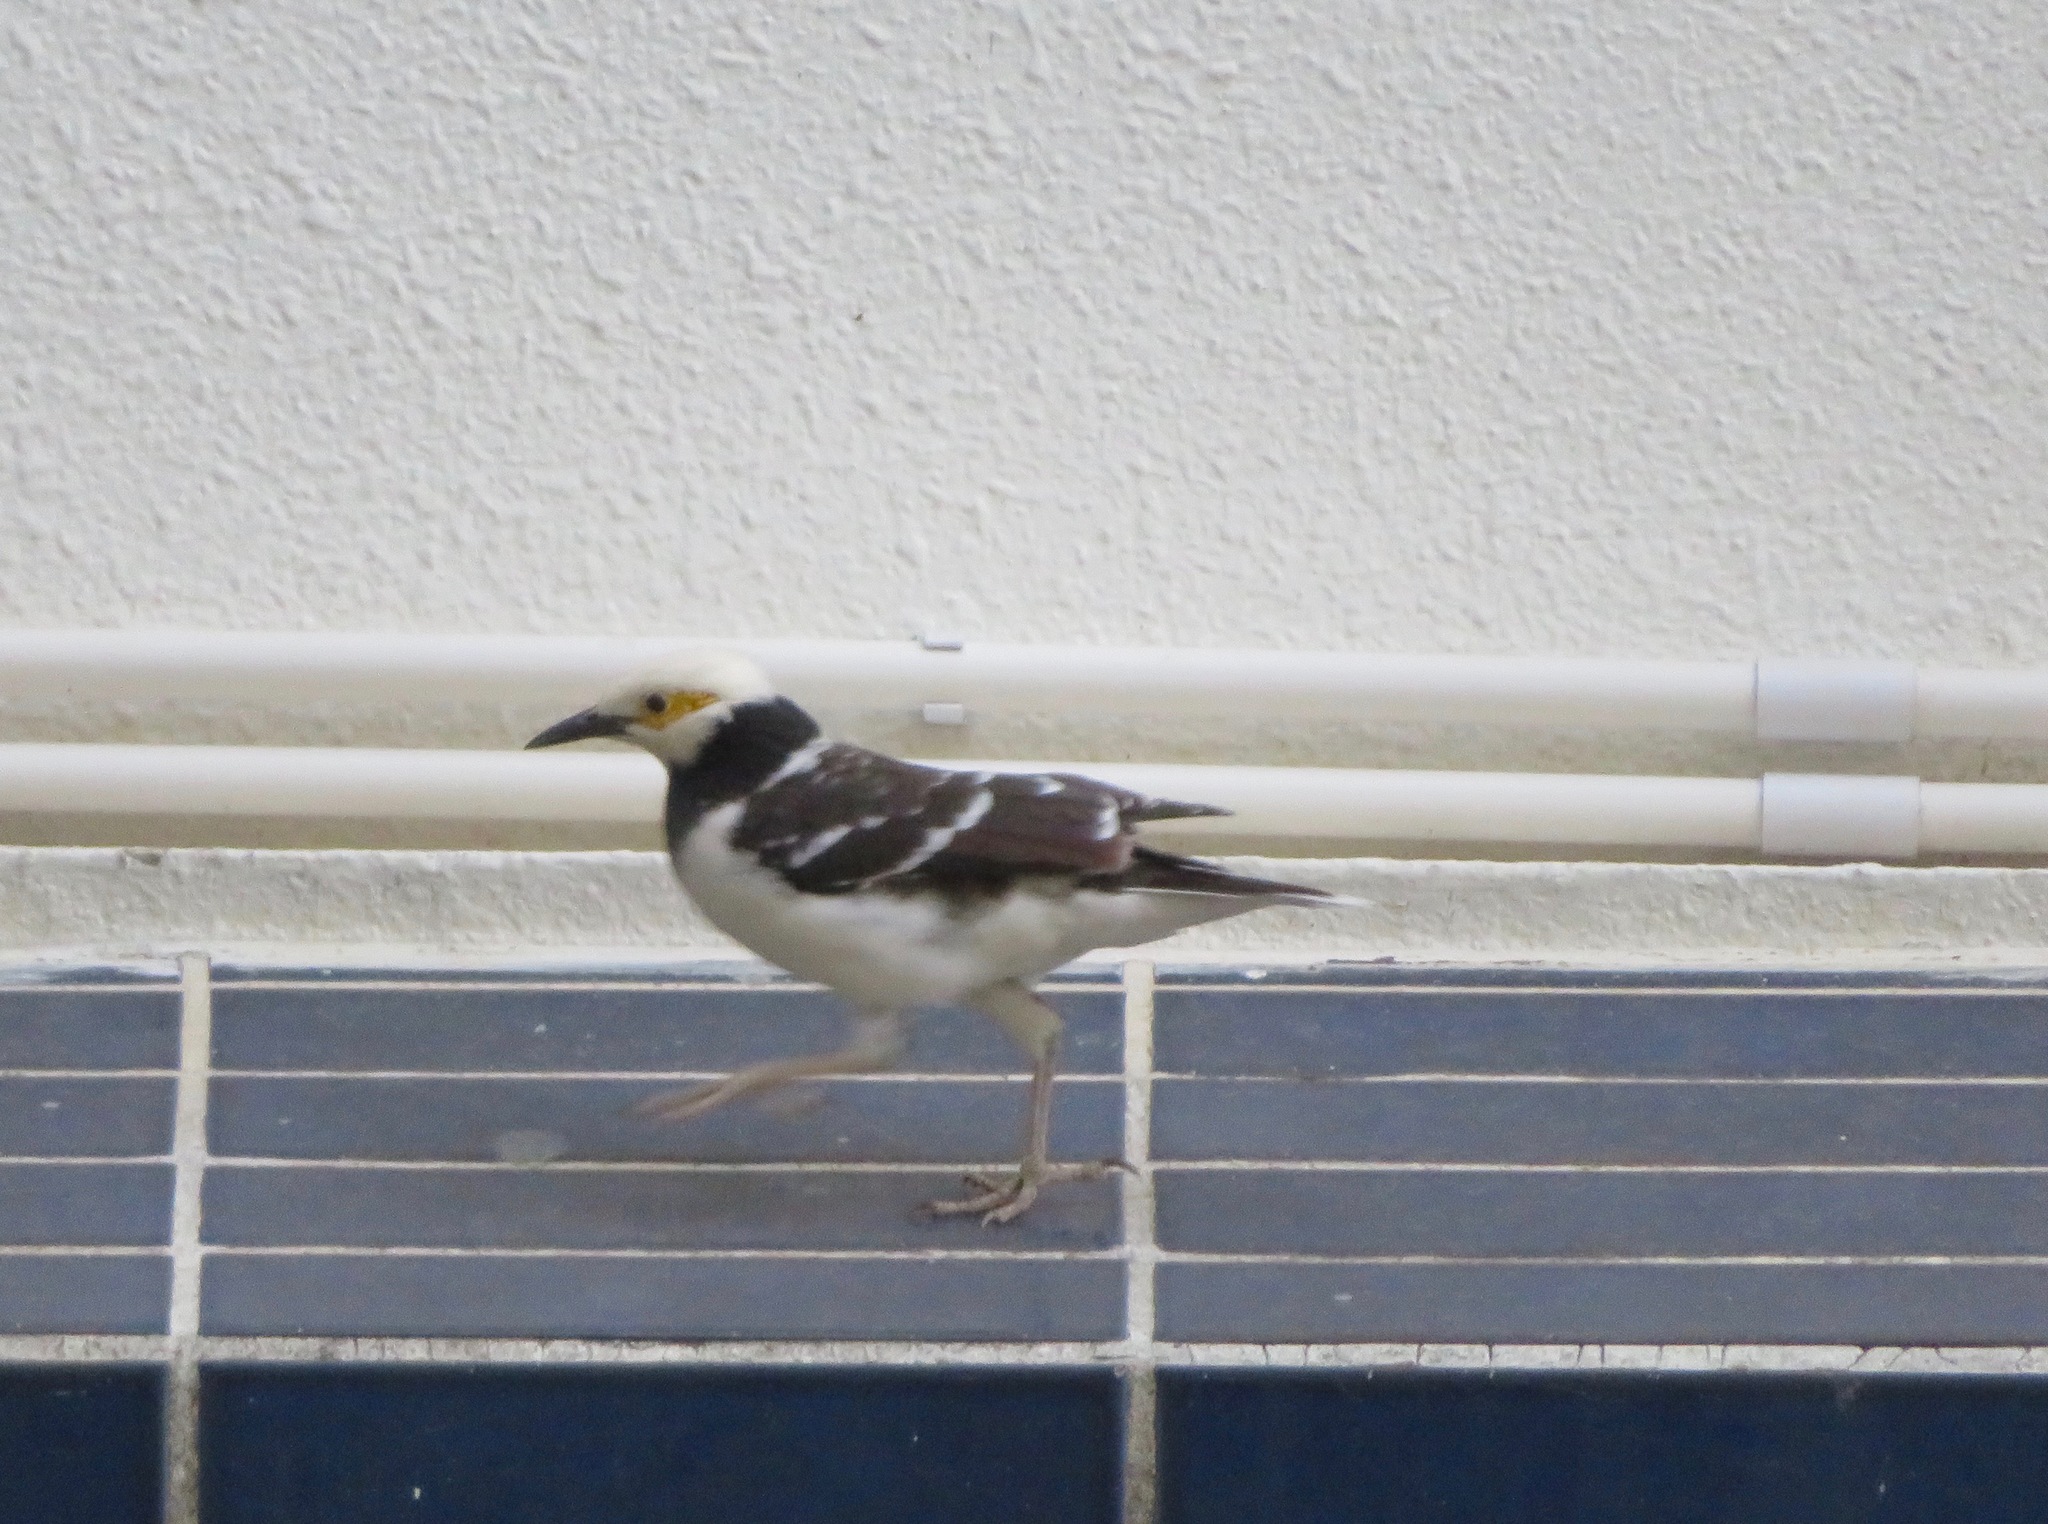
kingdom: Animalia
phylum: Chordata
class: Aves
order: Passeriformes
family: Sturnidae
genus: Gracupica
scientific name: Gracupica nigricollis
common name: Black-collared starling
